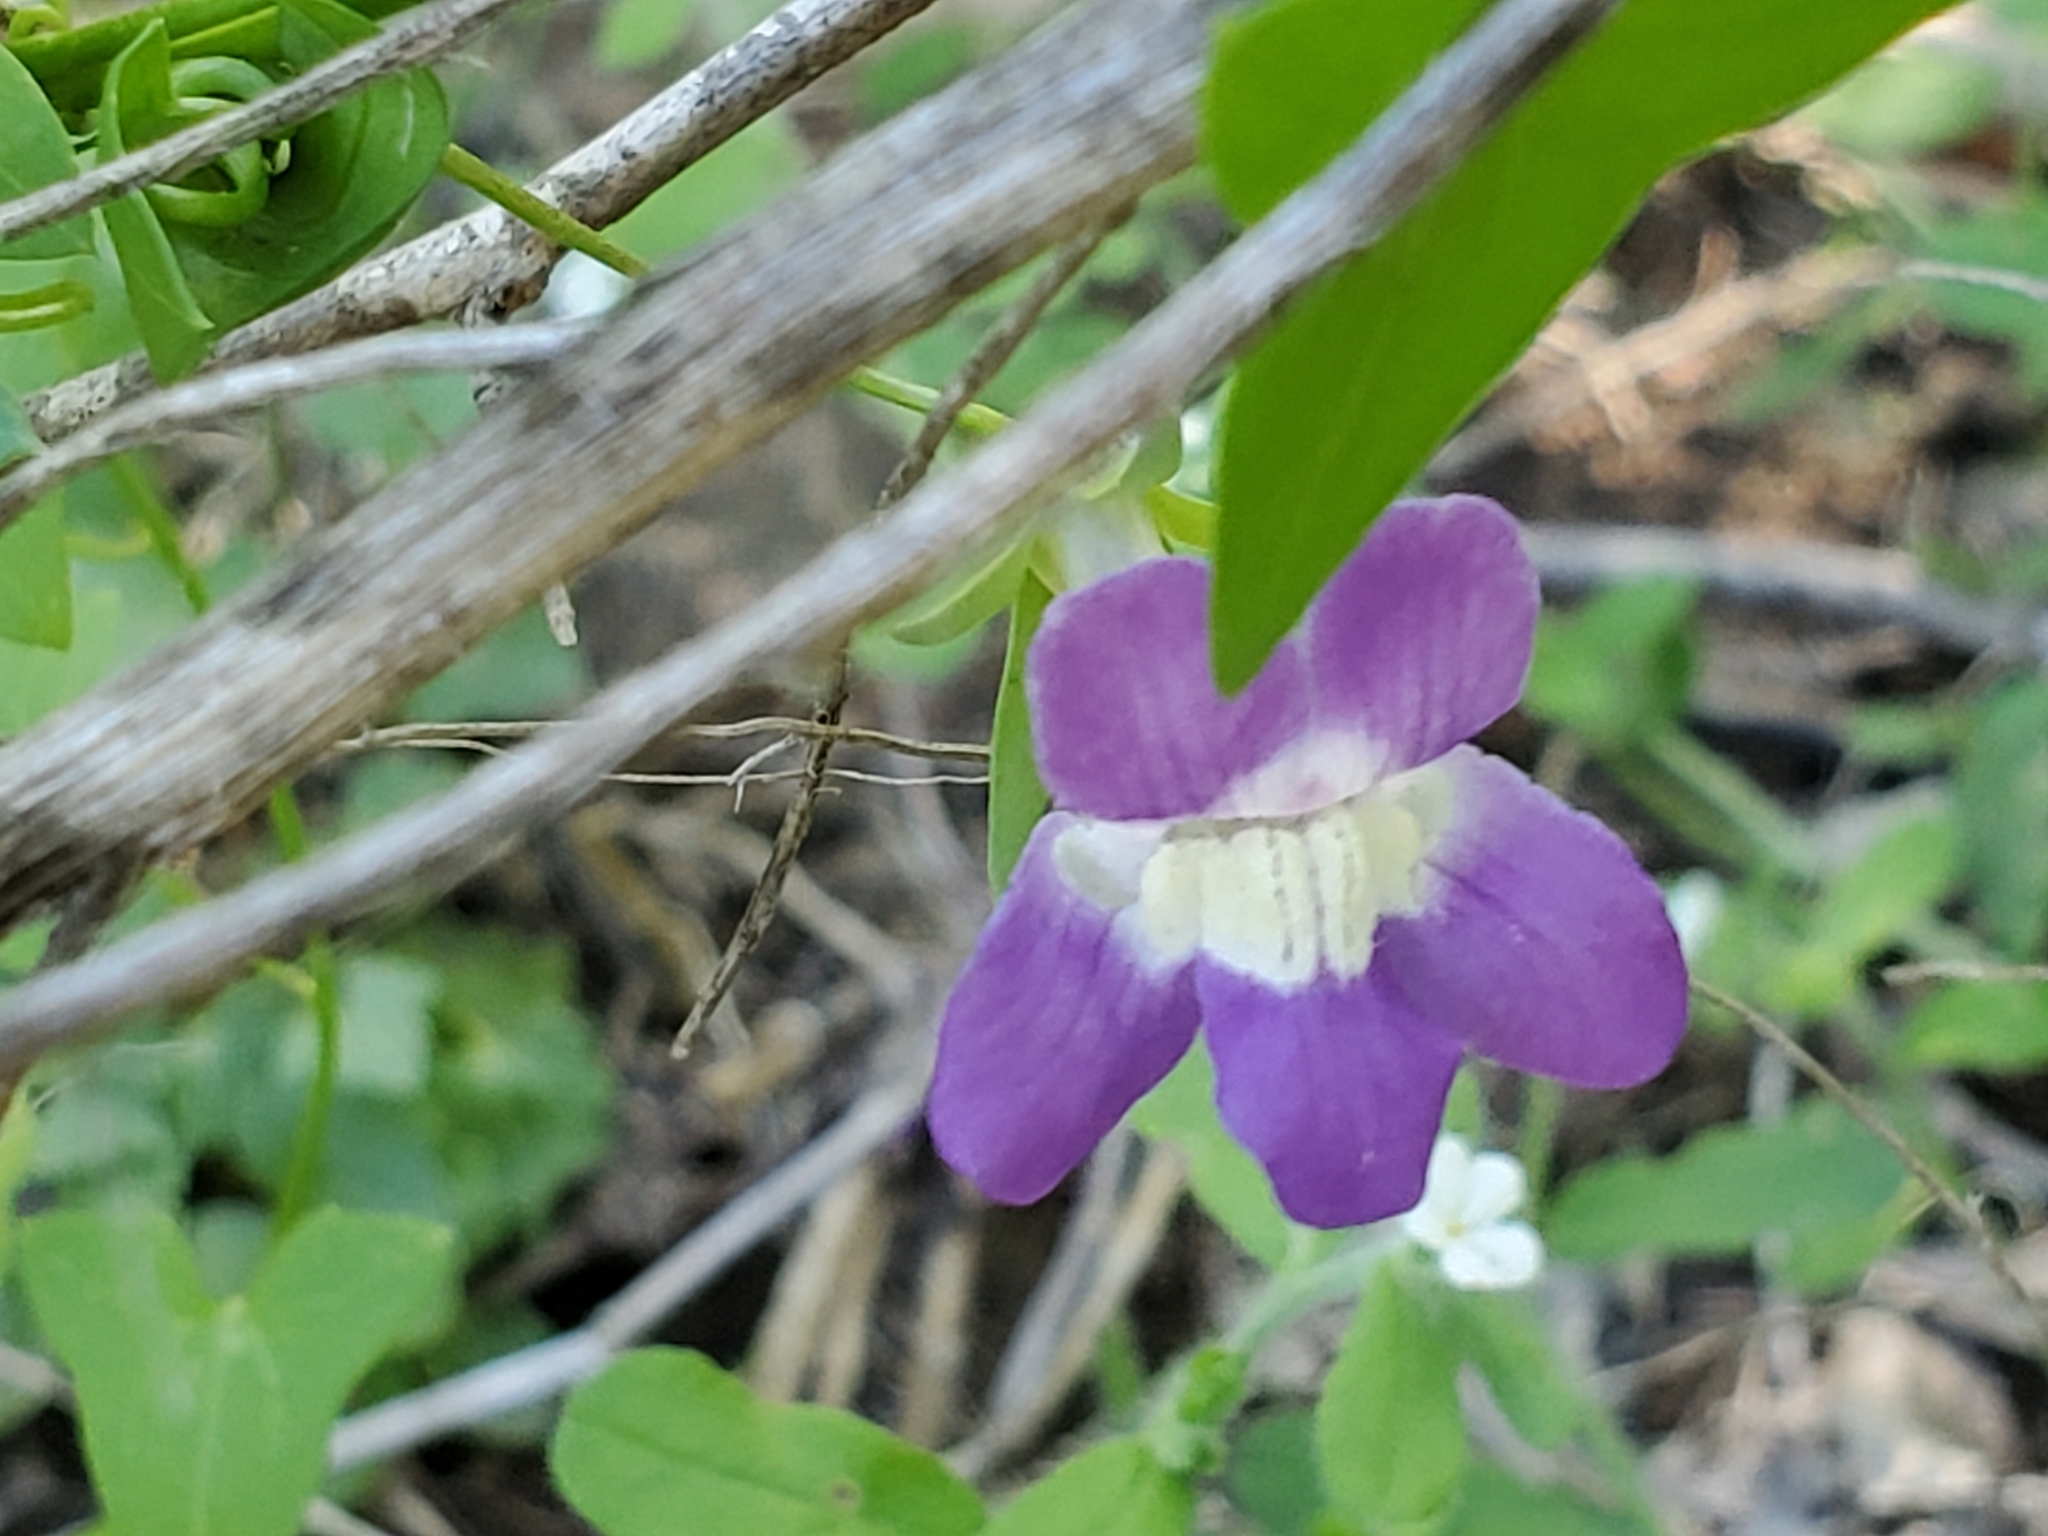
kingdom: Plantae
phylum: Tracheophyta
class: Magnoliopsida
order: Lamiales
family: Plantaginaceae
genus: Maurandella
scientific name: Maurandella antirrhiniflora
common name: Violet twining-snapdragon
